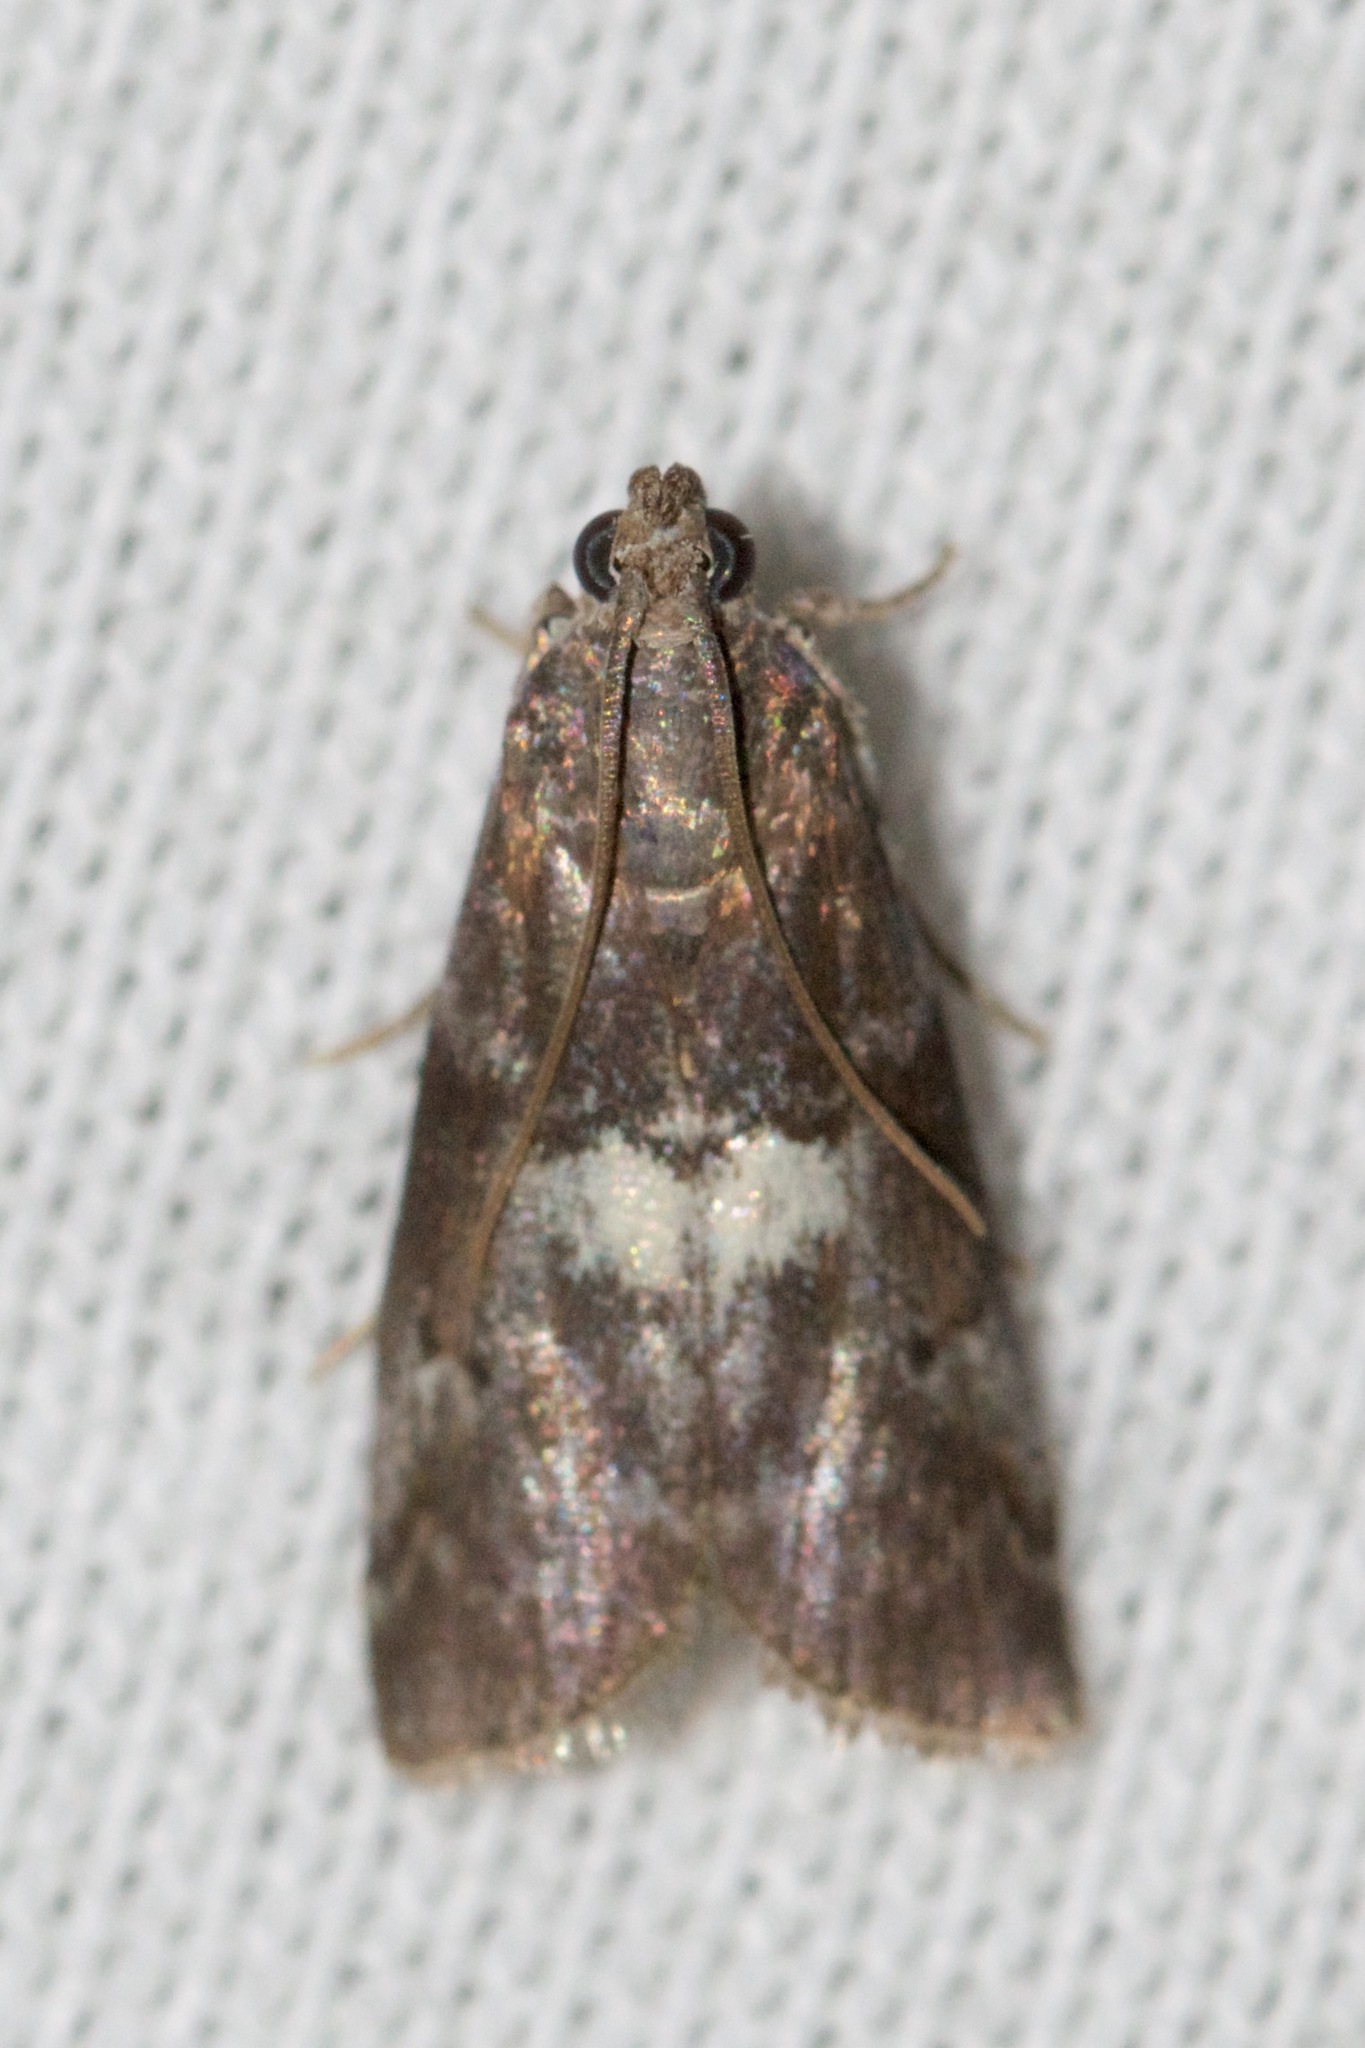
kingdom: Animalia
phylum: Arthropoda
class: Insecta
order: Lepidoptera
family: Pyralidae
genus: Salebriaria
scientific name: Salebriaria engeli
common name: Engel's salebriaria moth
